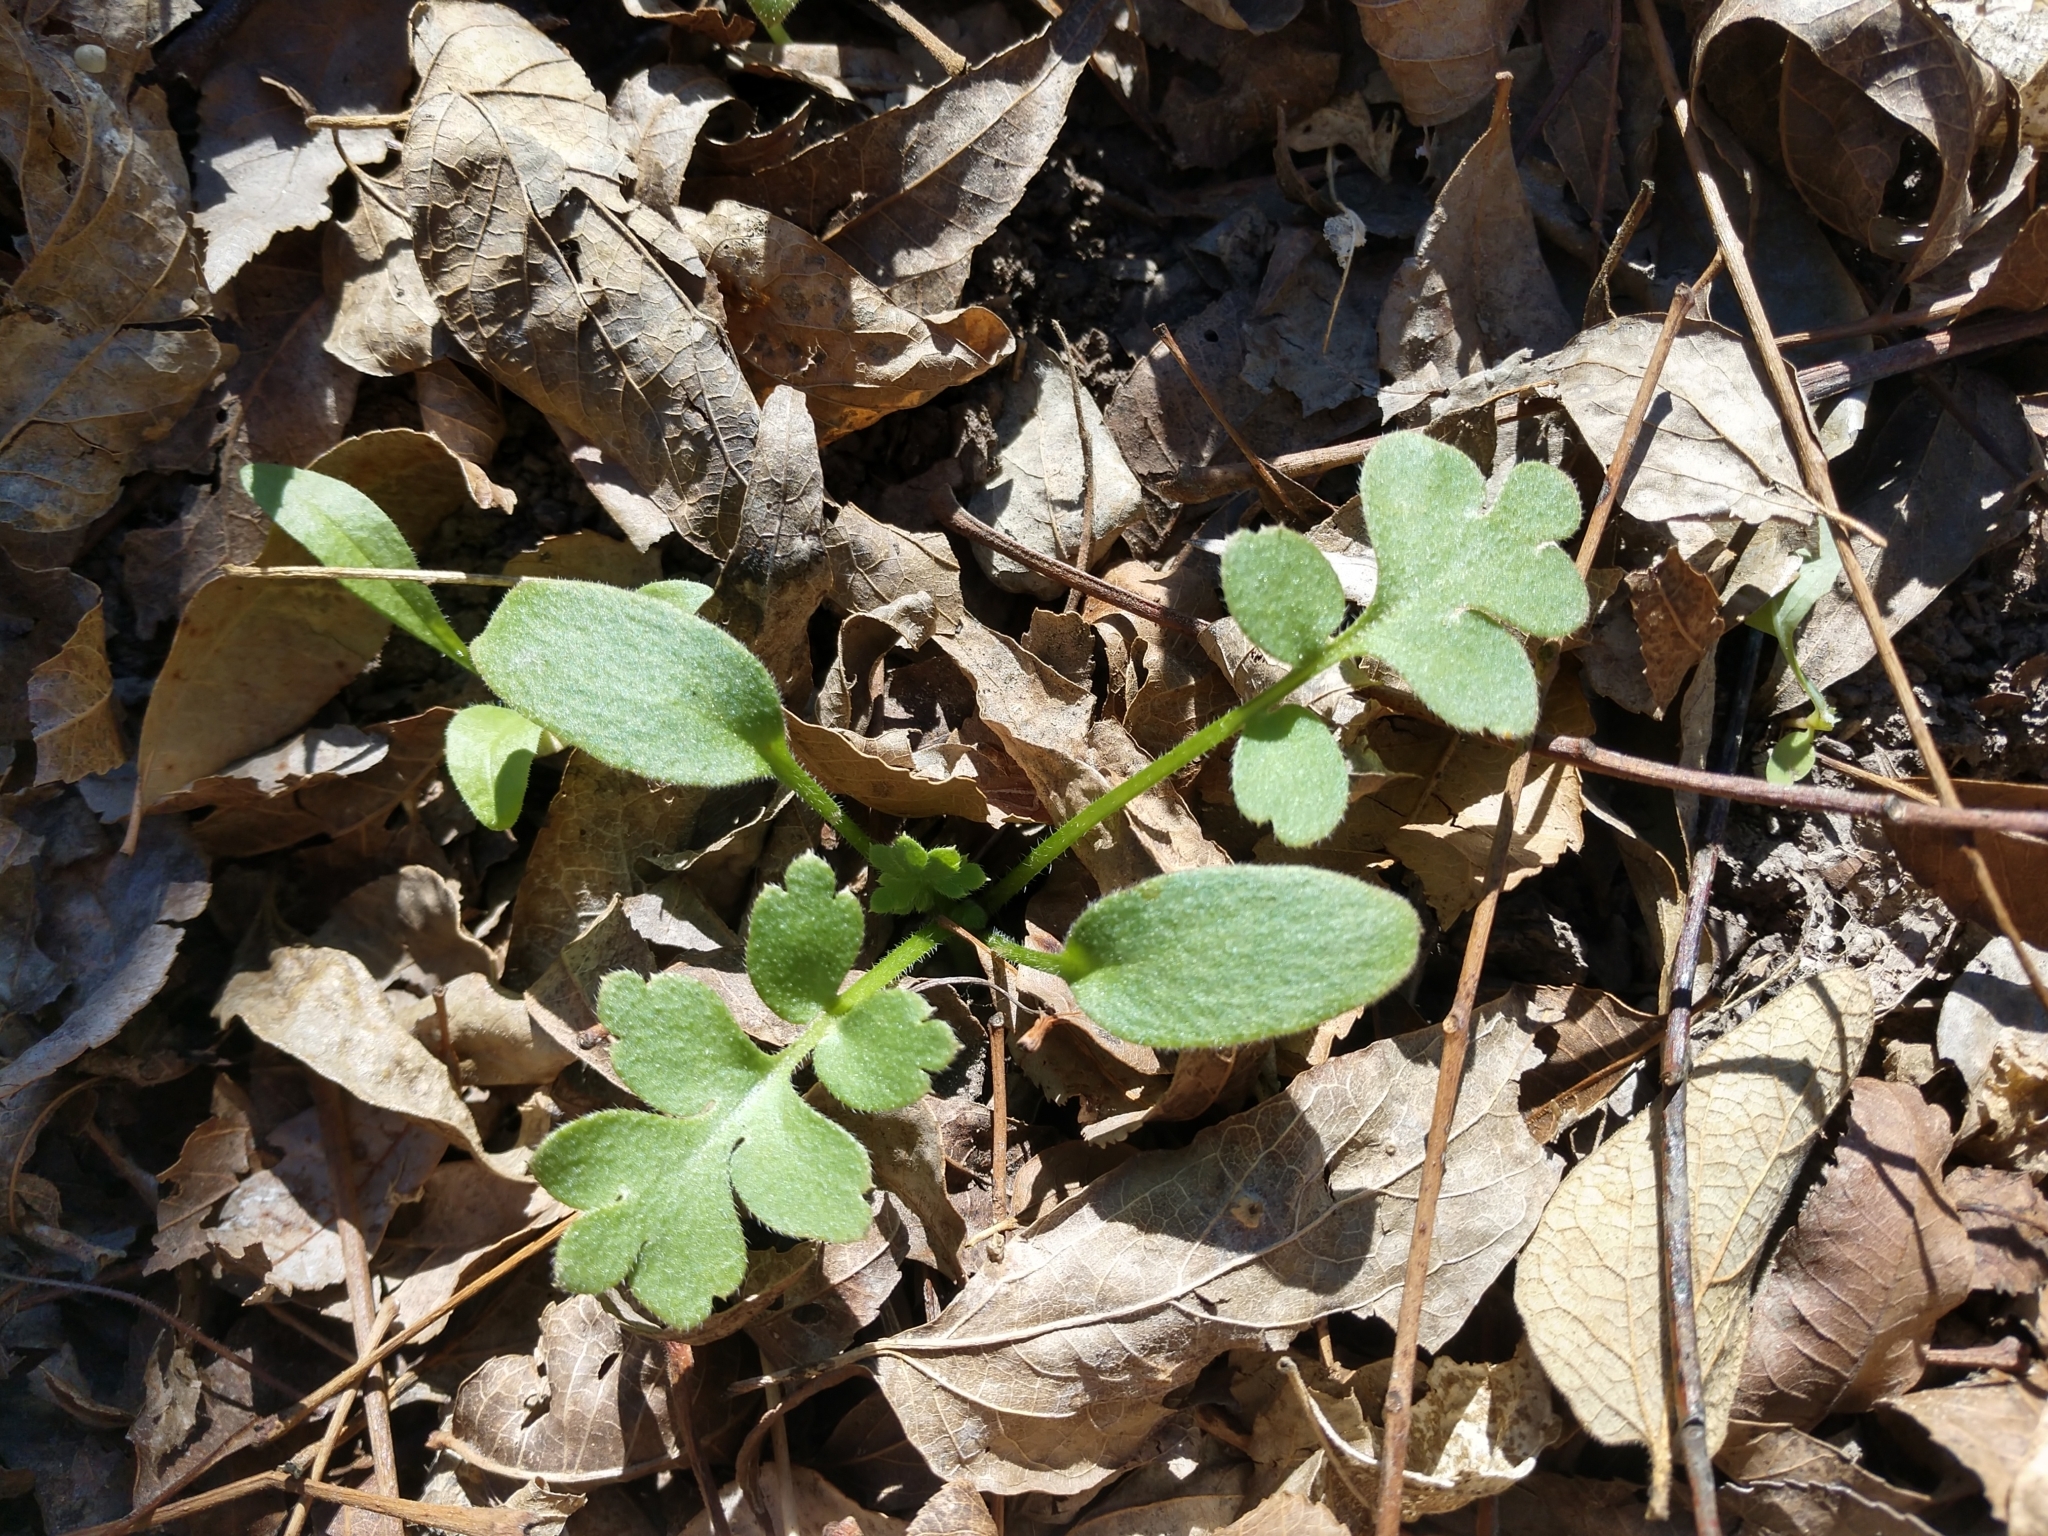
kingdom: Plantae
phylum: Tracheophyta
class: Magnoliopsida
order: Boraginales
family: Hydrophyllaceae
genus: Nemophila
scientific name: Nemophila phacelioides
